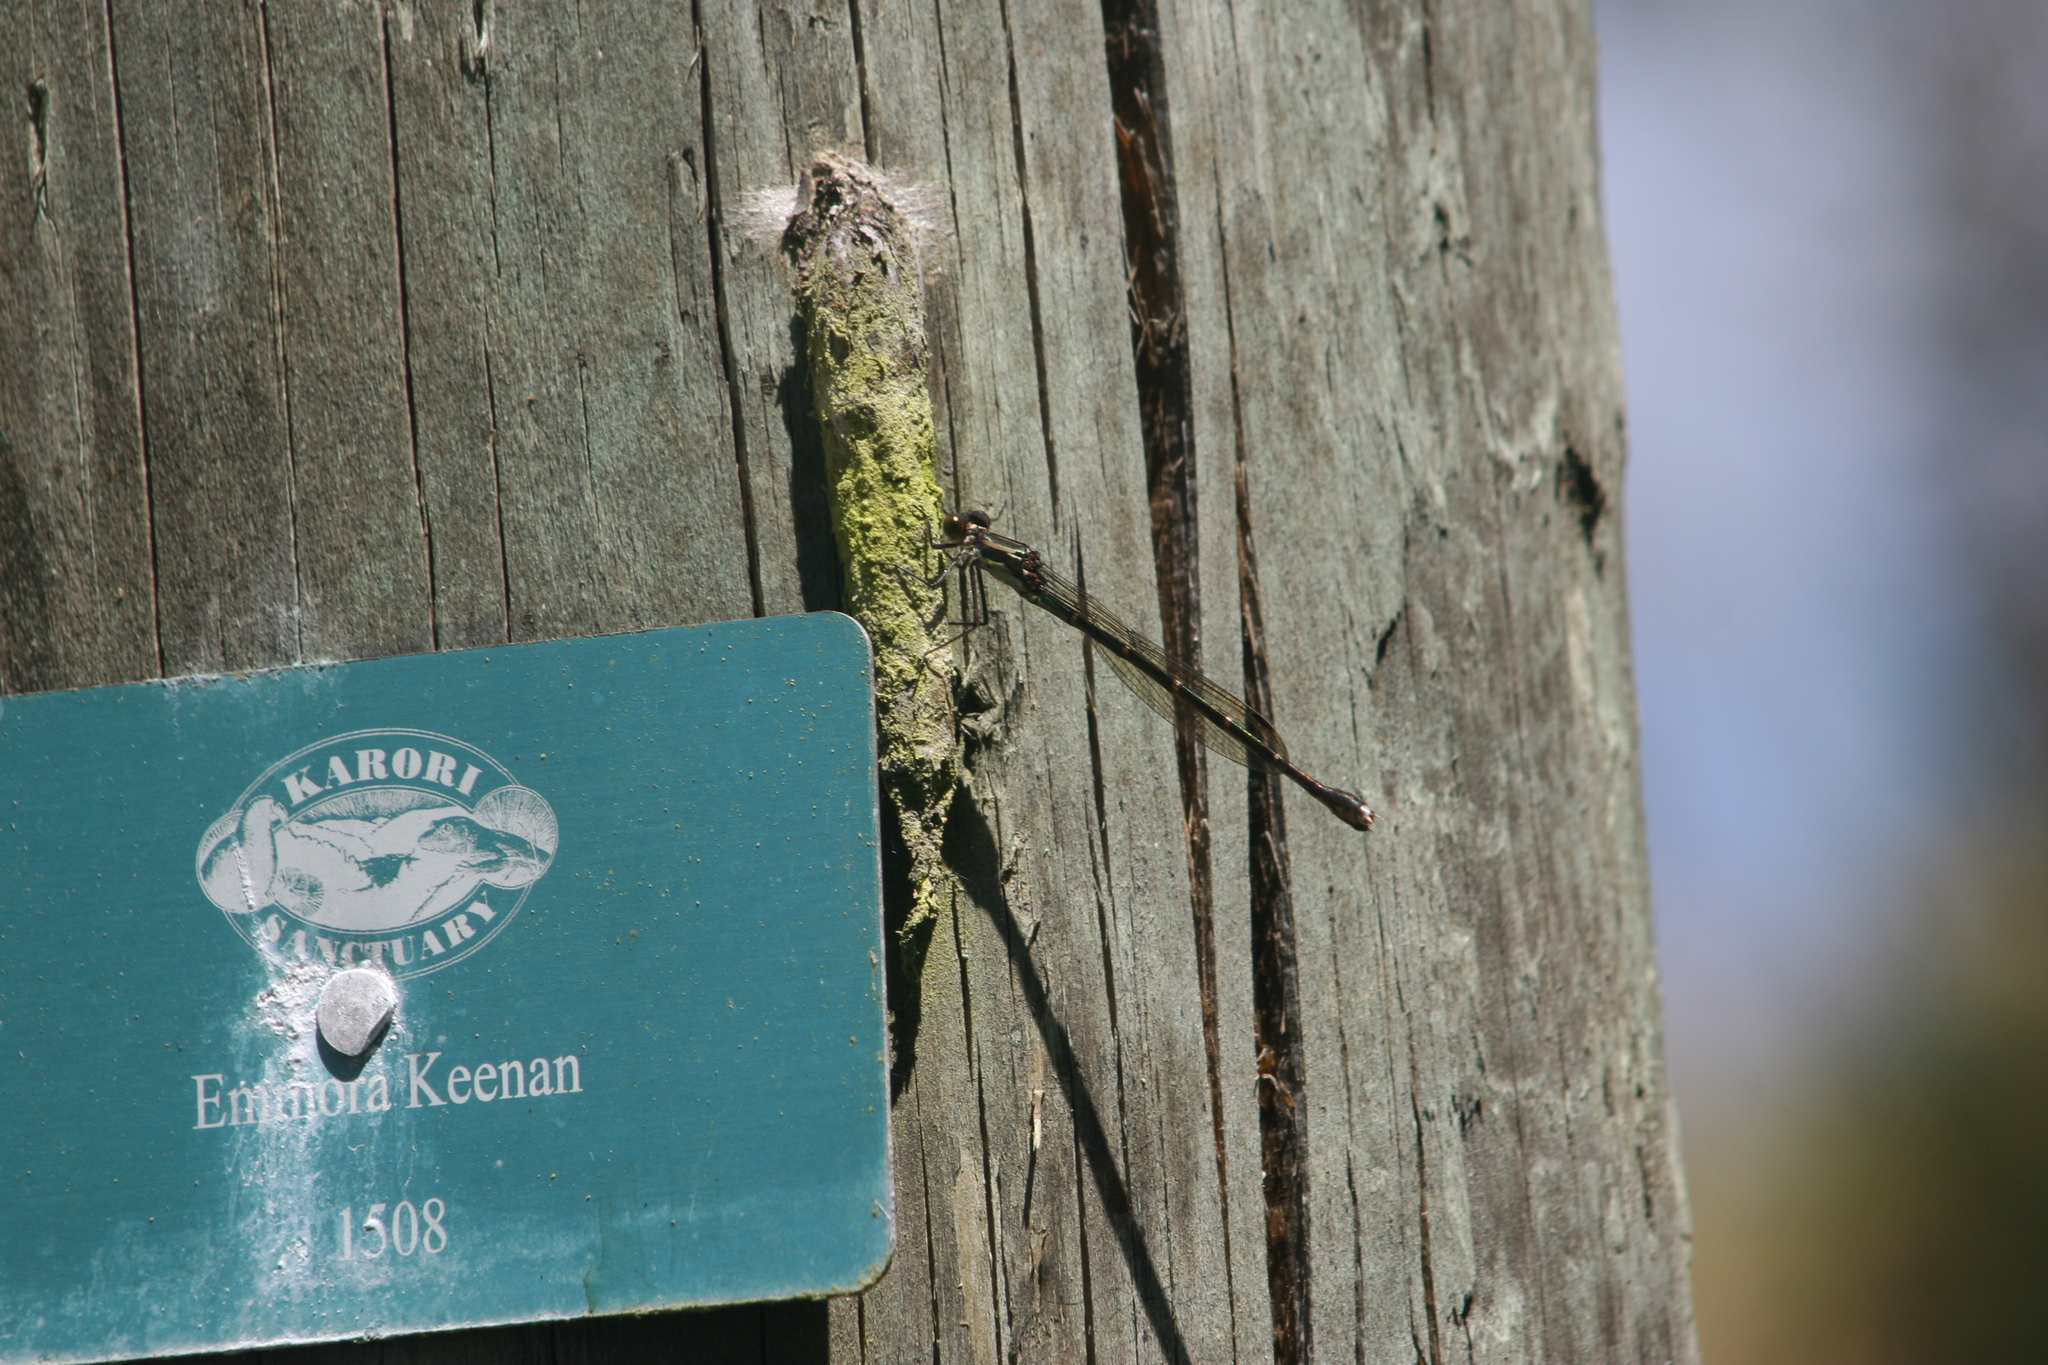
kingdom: Animalia
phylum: Arthropoda
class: Insecta
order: Odonata
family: Lestidae
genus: Austrolestes
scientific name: Austrolestes colensonis
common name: Blue damselfly
